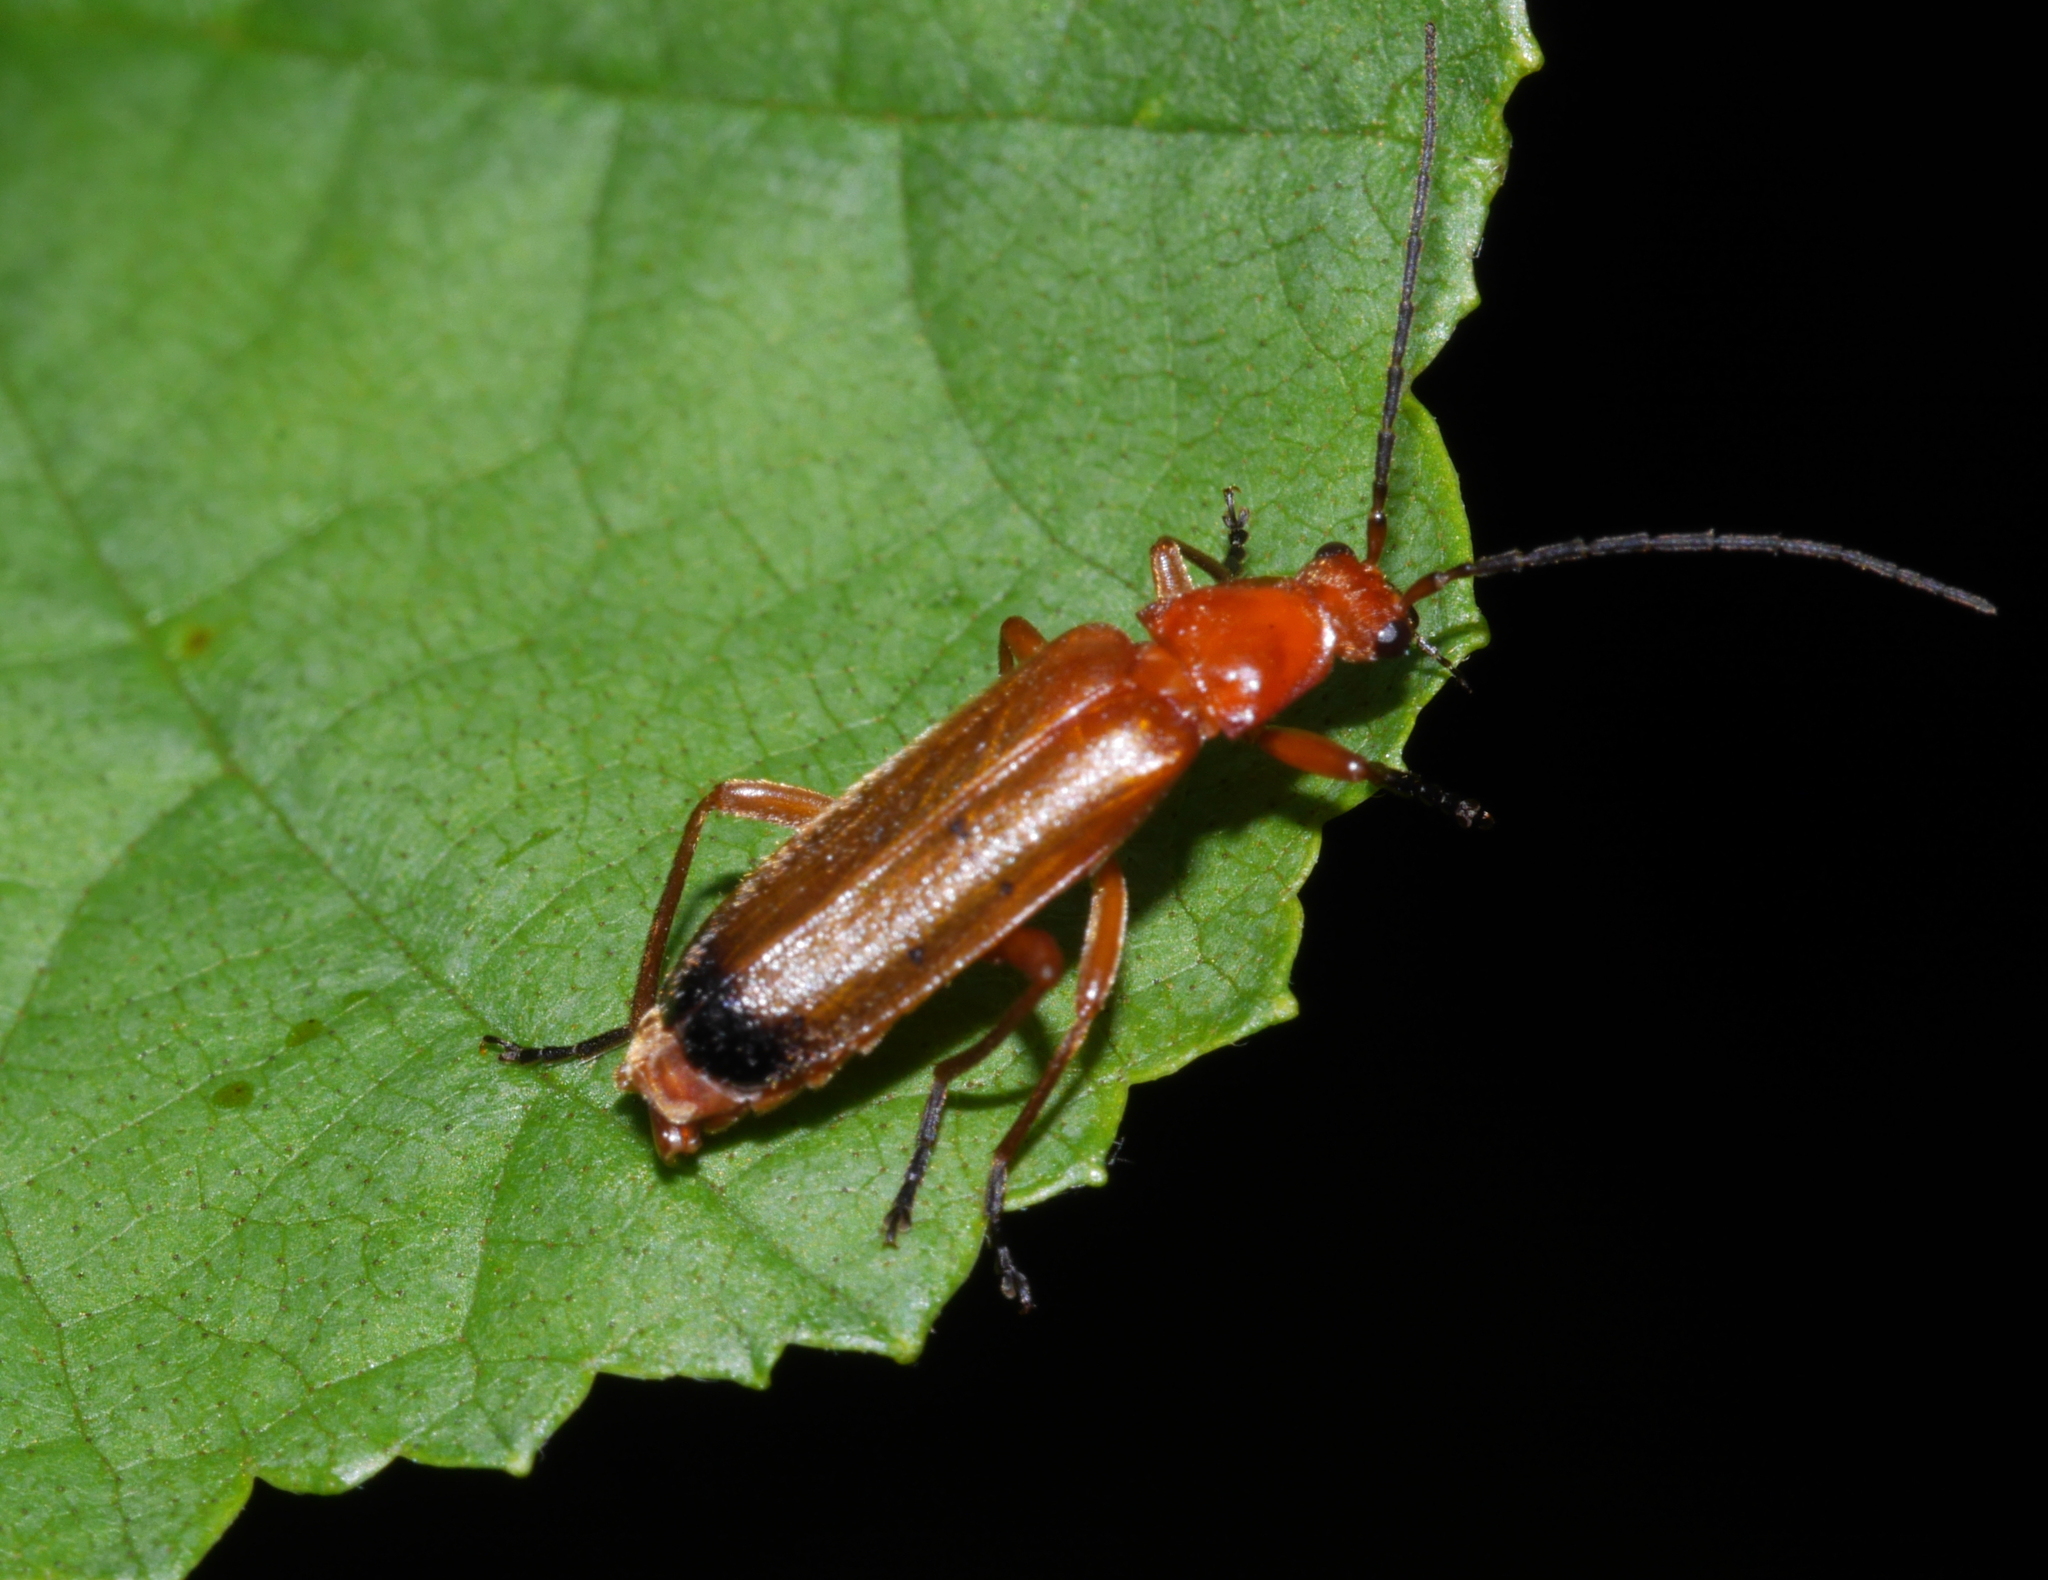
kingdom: Animalia
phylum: Arthropoda
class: Insecta
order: Coleoptera
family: Cantharidae
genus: Rhagonycha
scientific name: Rhagonycha fulva
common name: Common red soldier beetle
